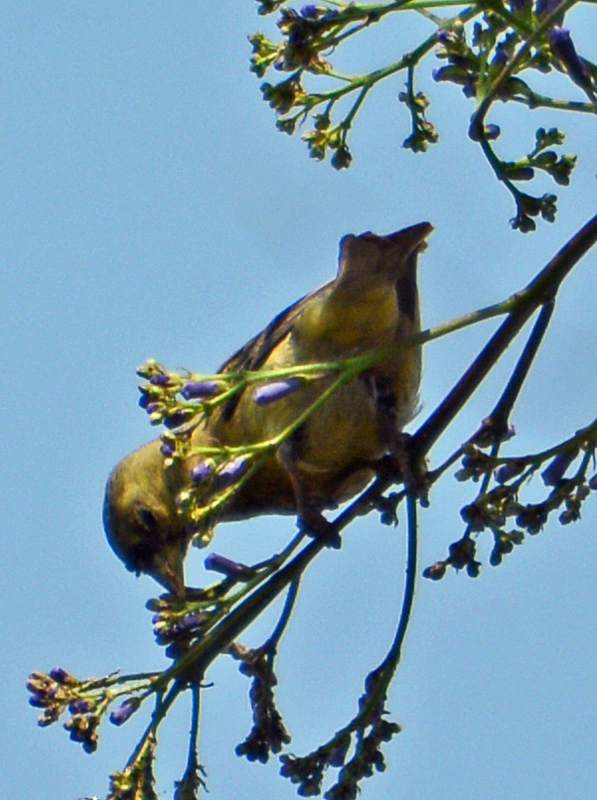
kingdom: Animalia
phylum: Chordata
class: Aves
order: Passeriformes
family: Fringillidae
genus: Spinus
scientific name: Spinus psaltria
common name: Lesser goldfinch
